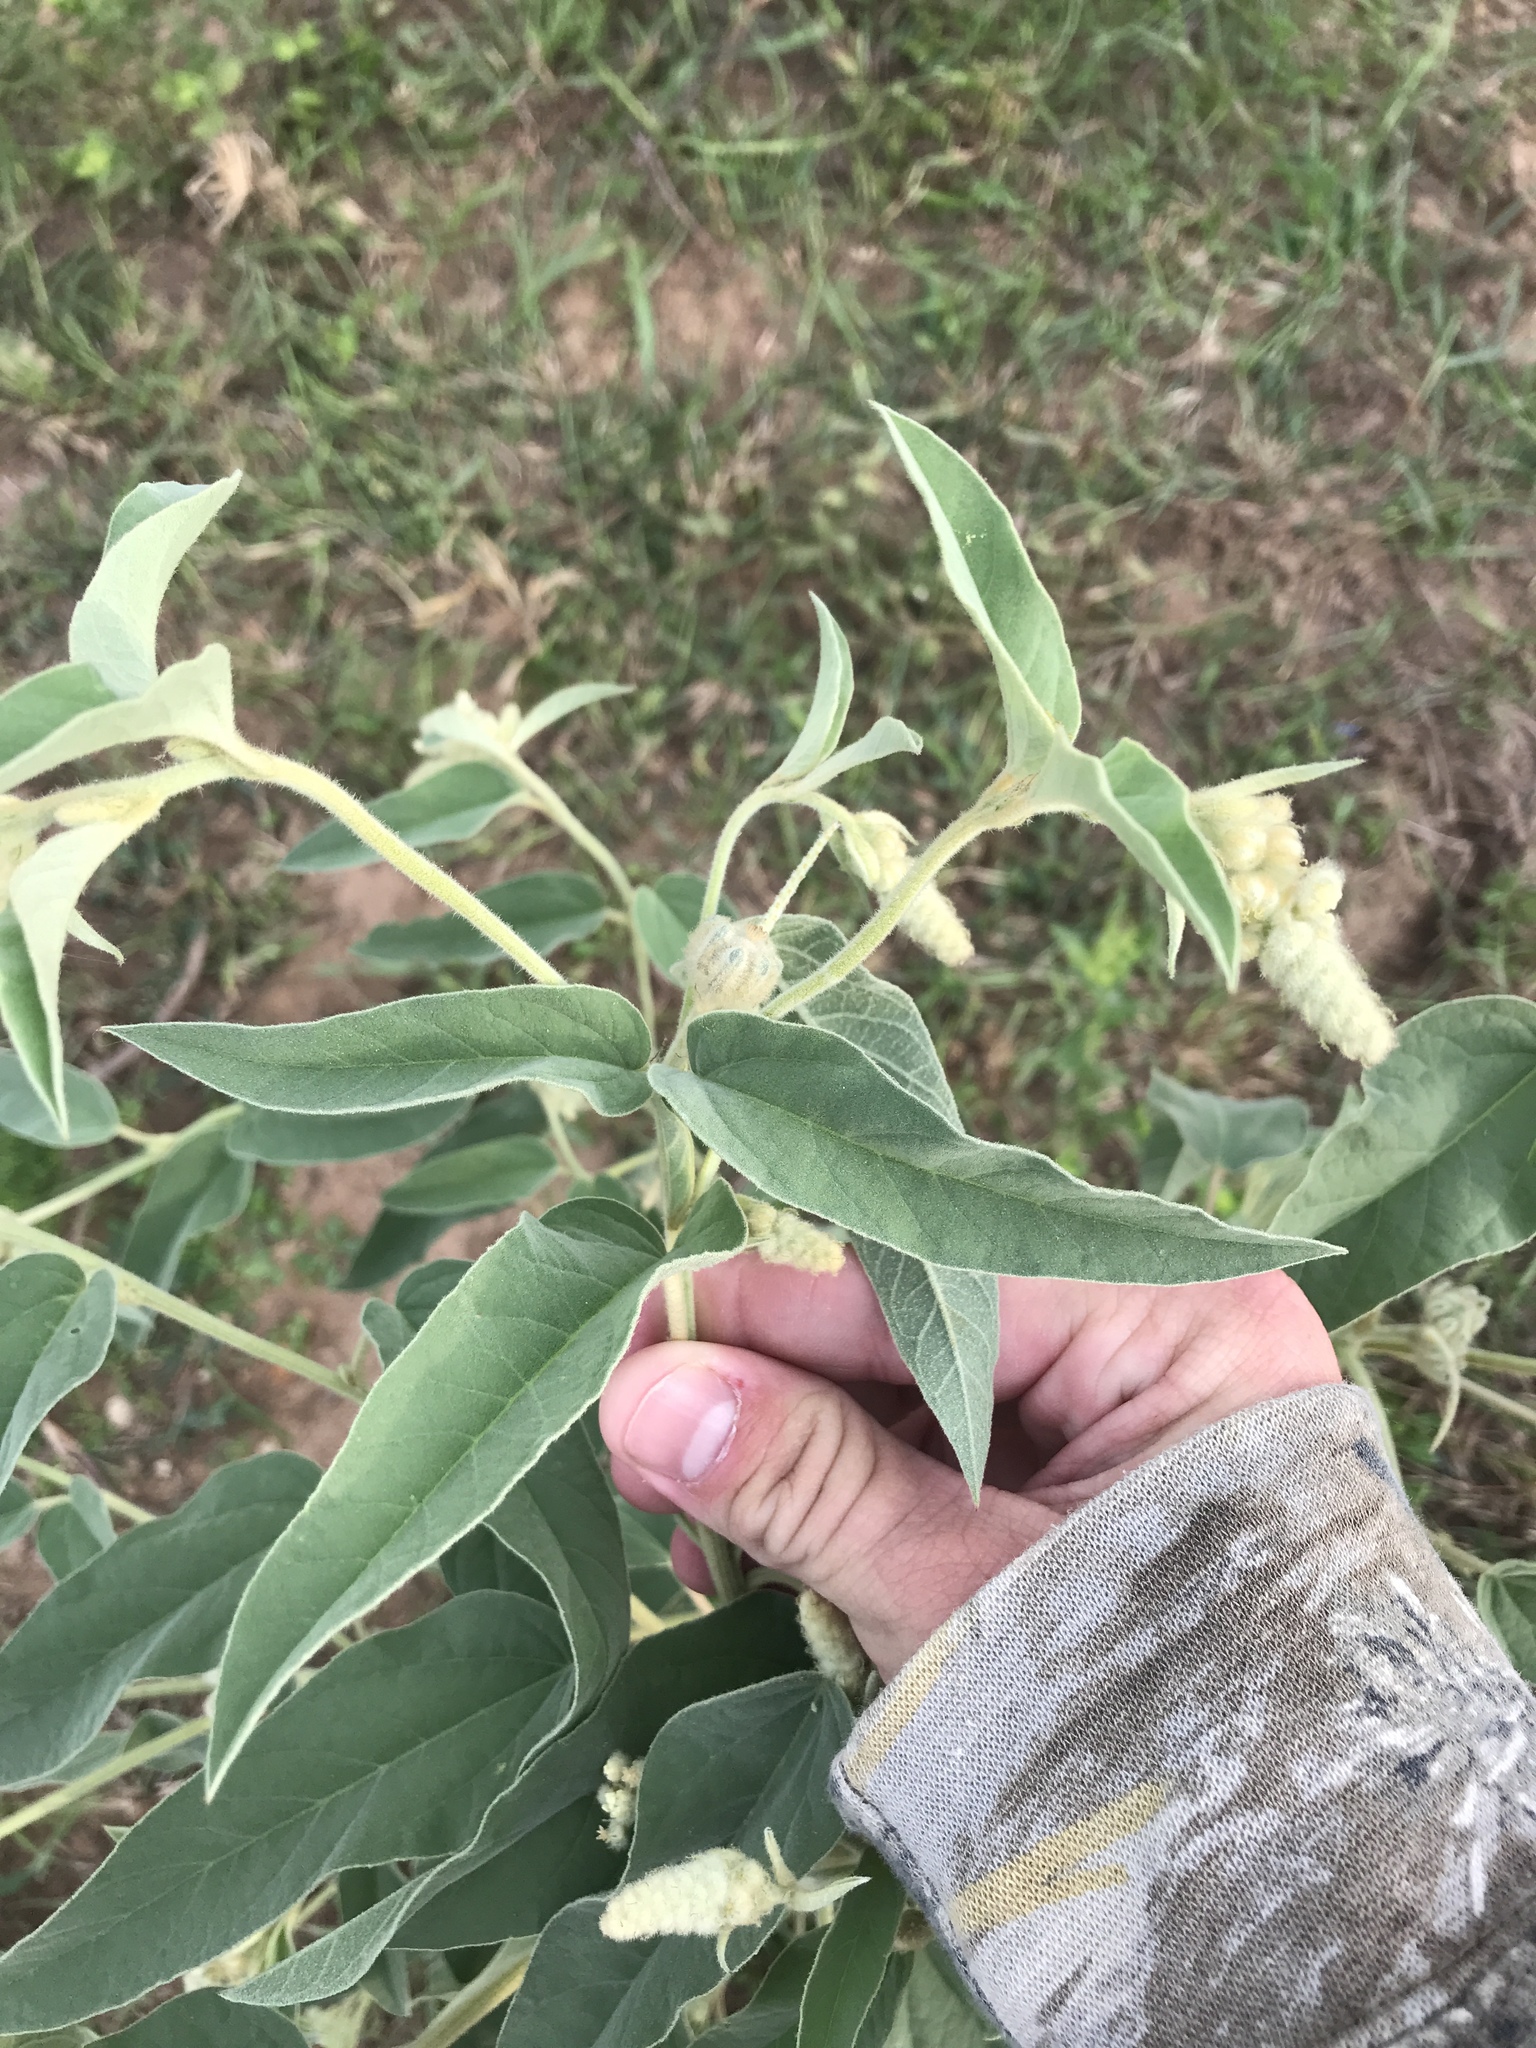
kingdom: Plantae
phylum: Tracheophyta
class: Magnoliopsida
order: Malpighiales
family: Euphorbiaceae
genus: Croton
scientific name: Croton lindheimeri
